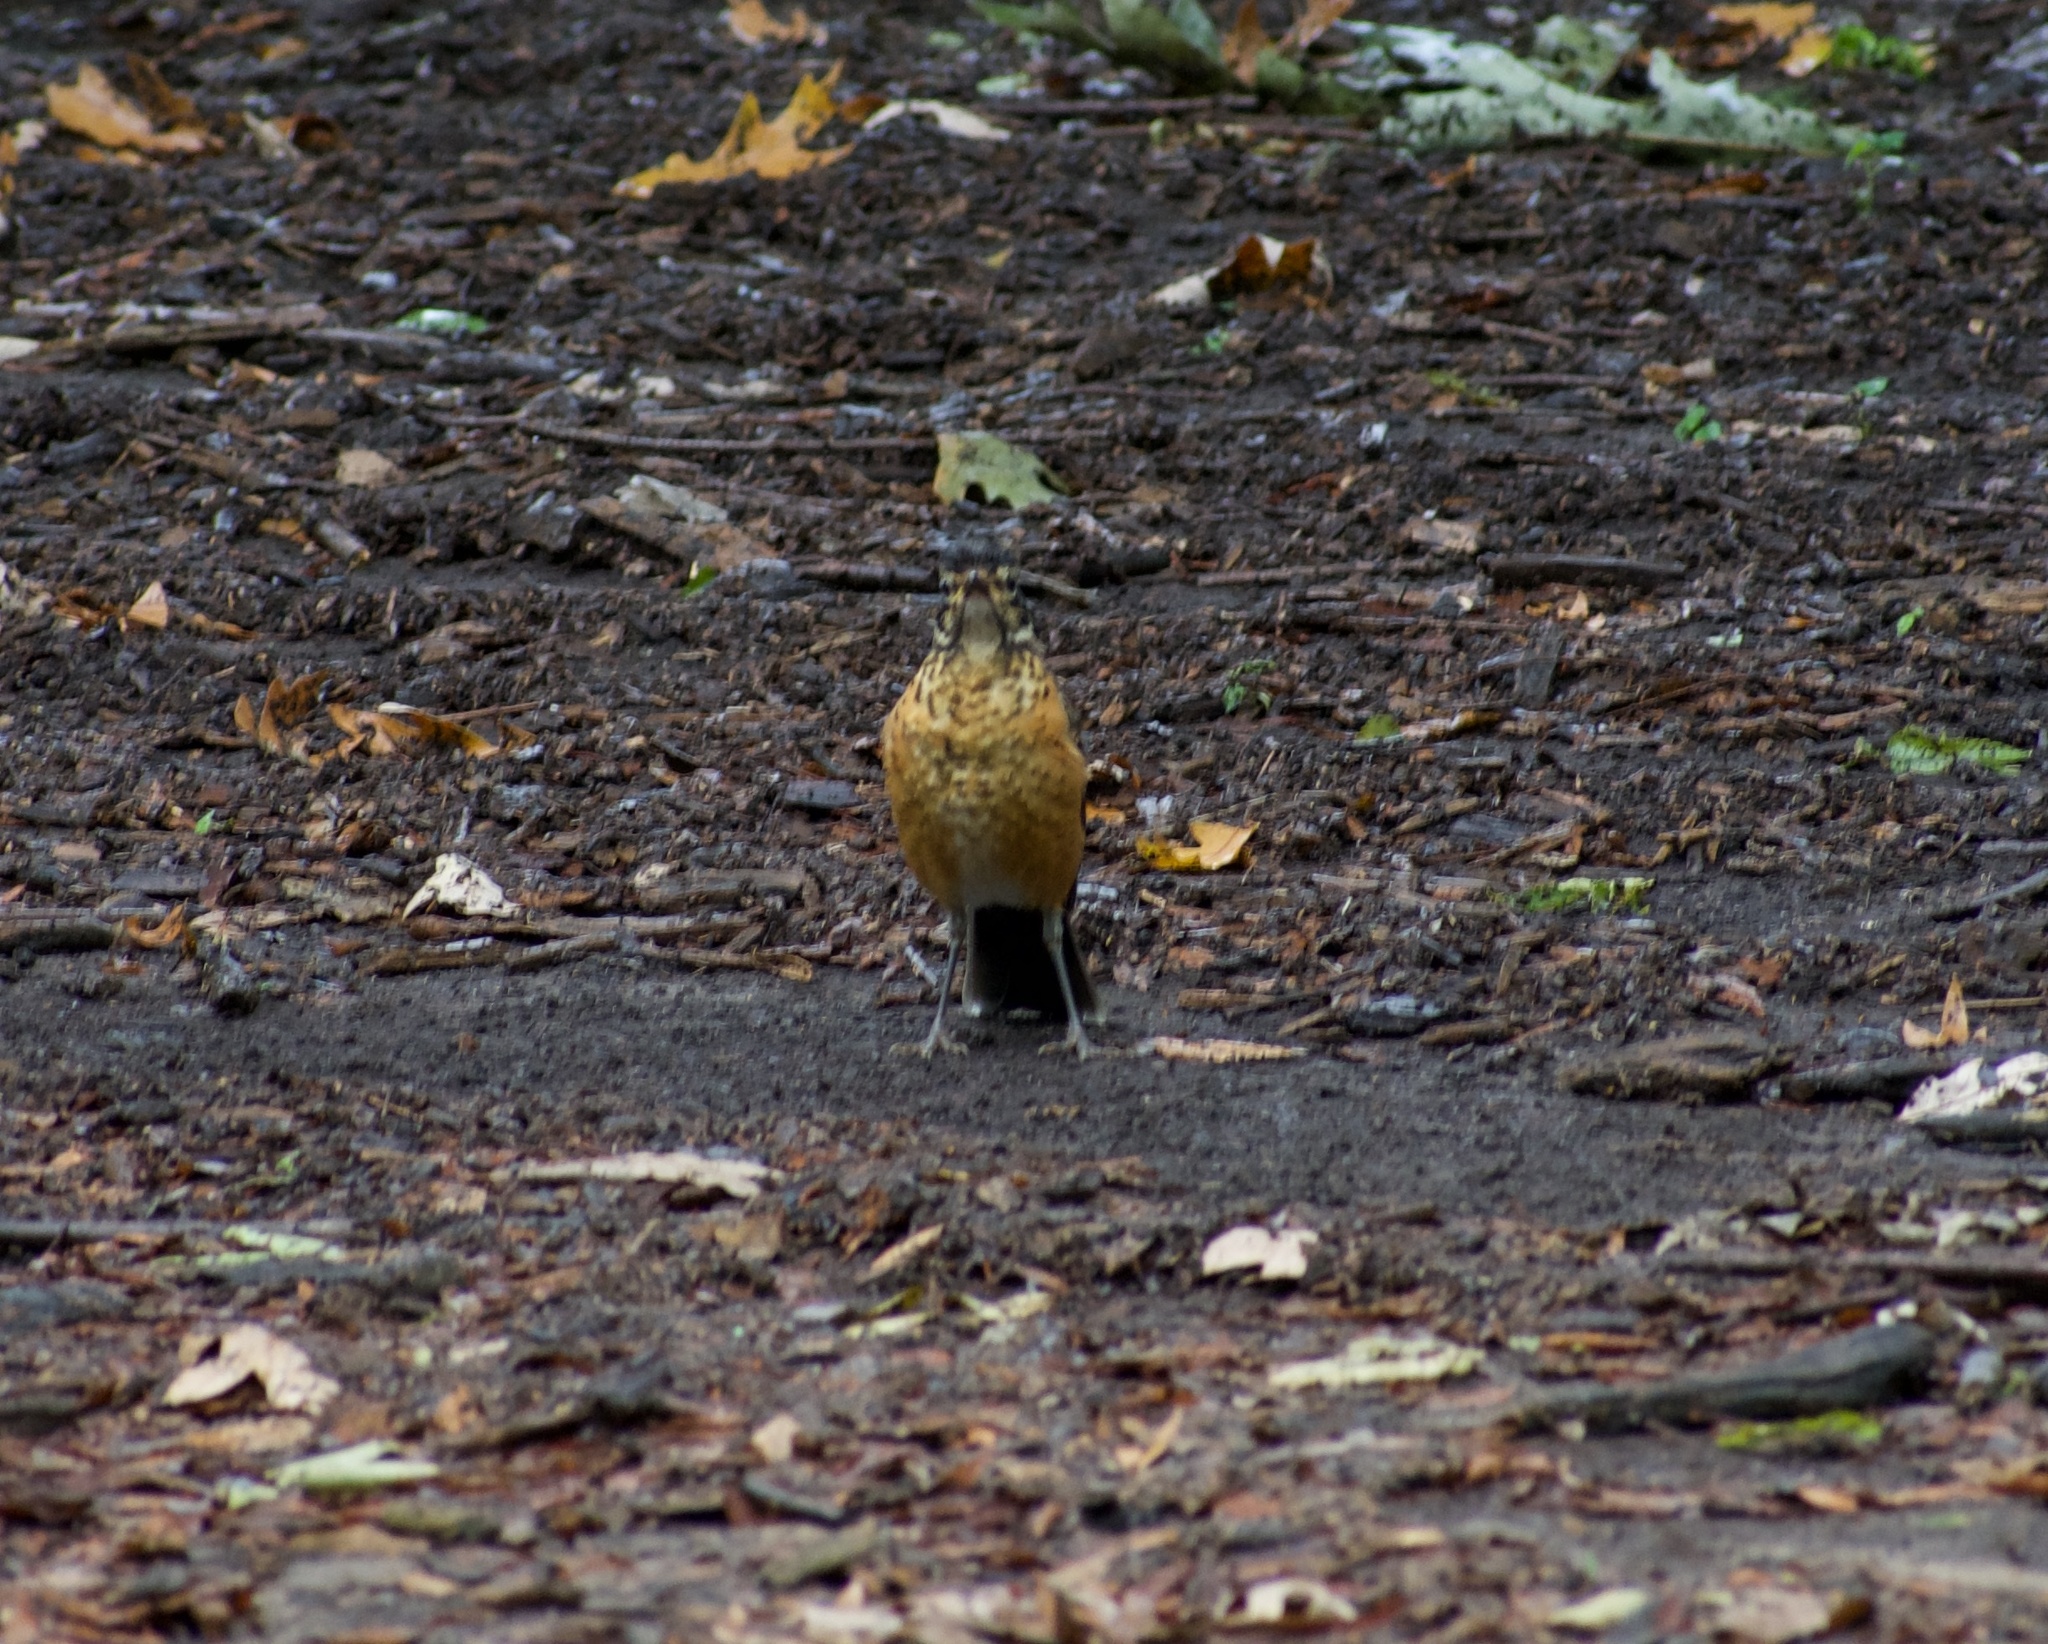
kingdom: Animalia
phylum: Chordata
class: Aves
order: Passeriformes
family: Turdidae
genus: Turdus
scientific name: Turdus migratorius
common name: American robin
